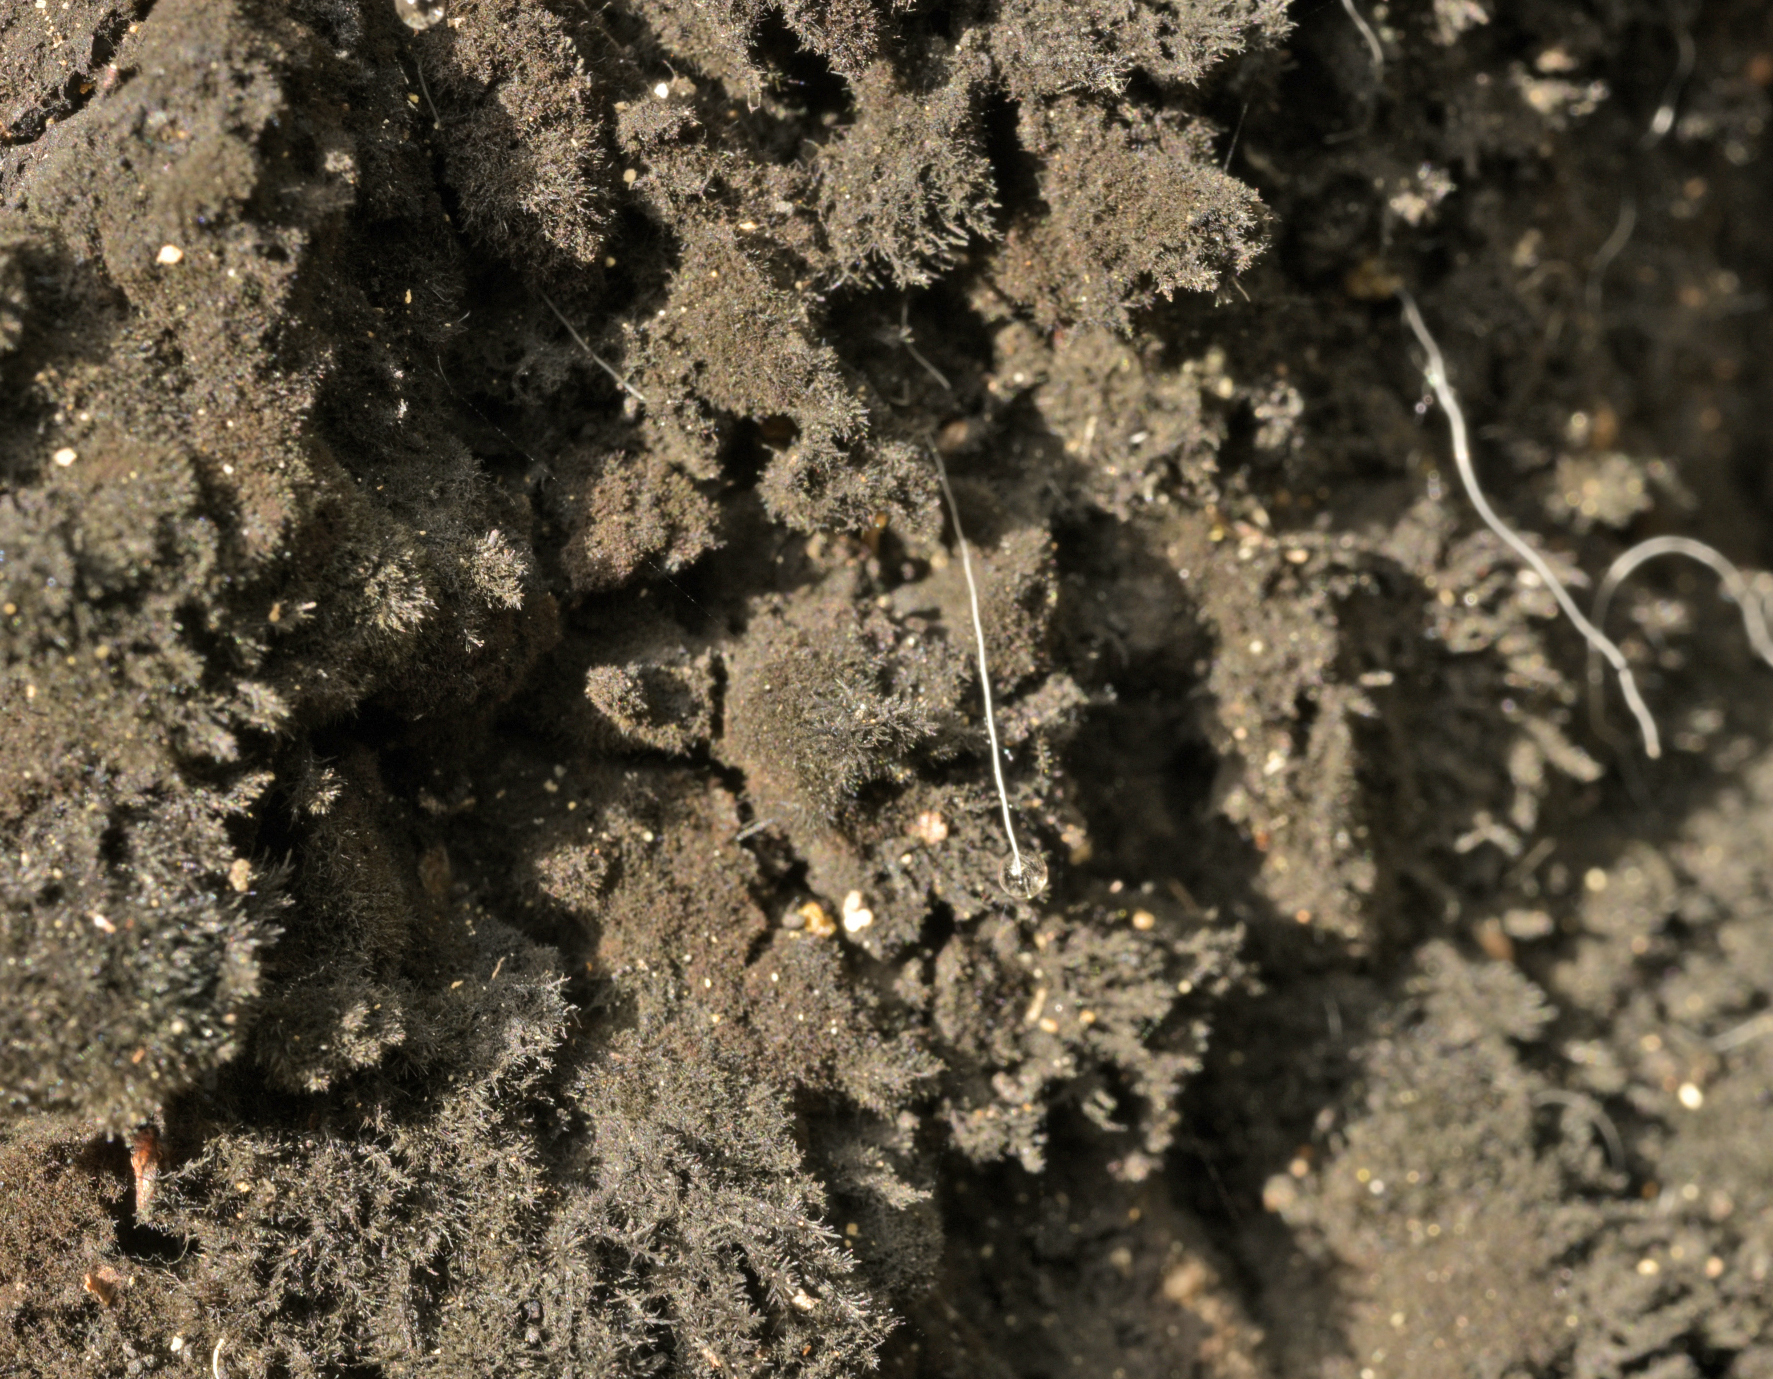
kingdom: Fungi
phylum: Ascomycota
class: Dothideomycetes
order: Capnodiales
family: Metacapnodiaceae
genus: Ophiocapnocoma
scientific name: Ophiocapnocoma batistae
